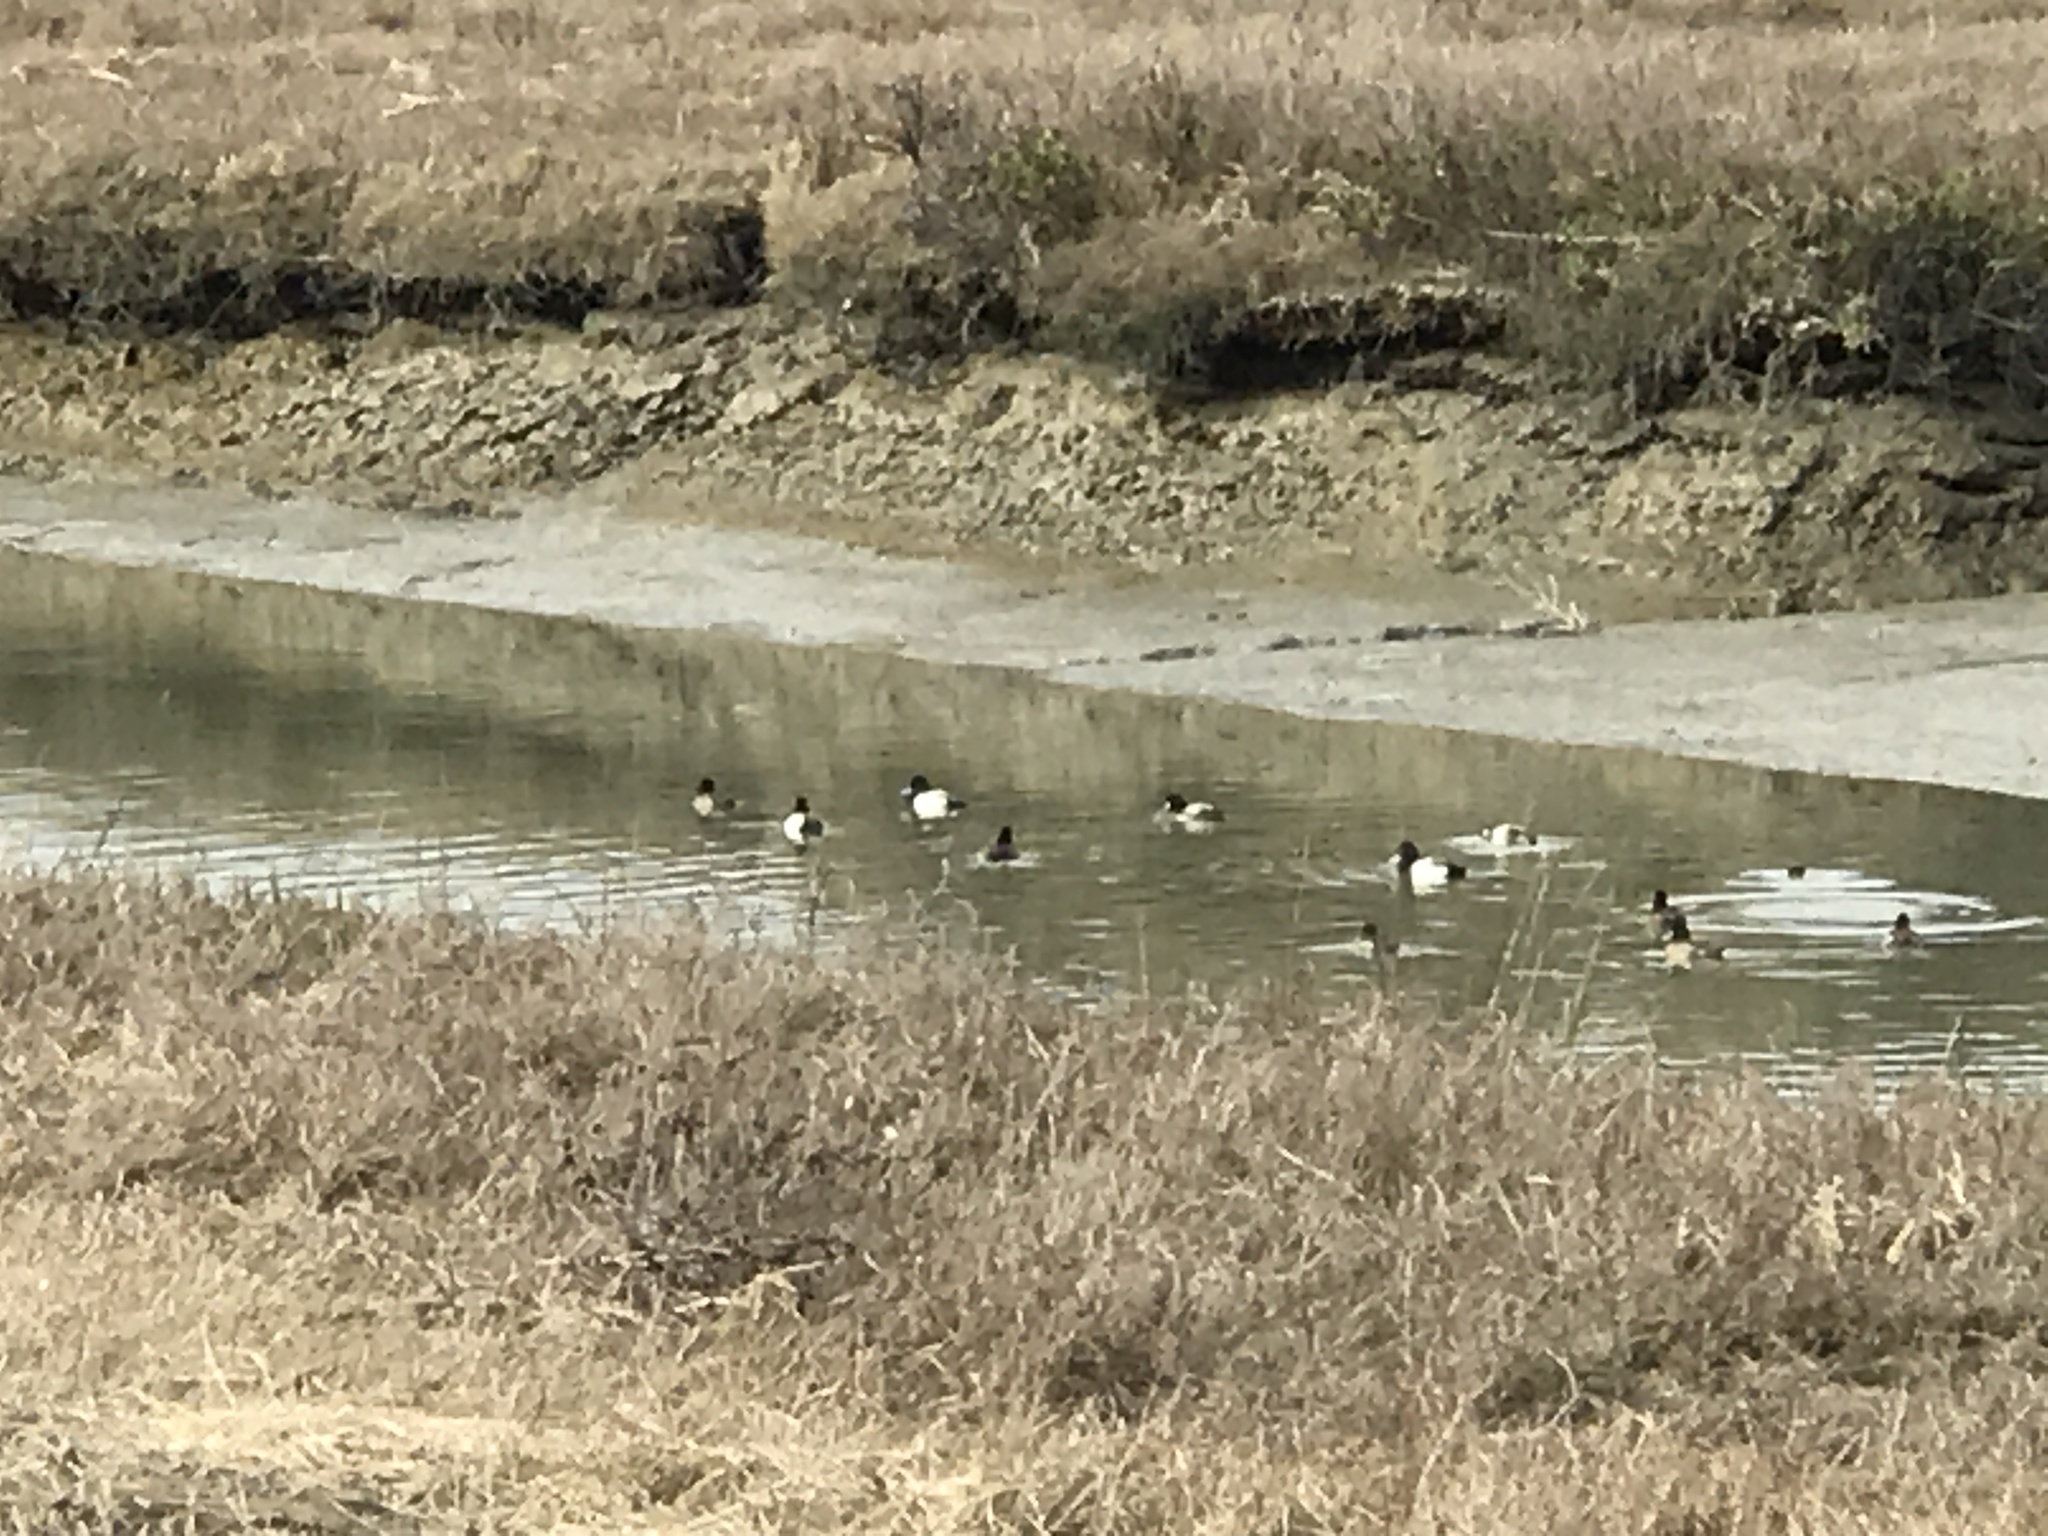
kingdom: Animalia
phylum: Chordata
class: Aves
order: Anseriformes
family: Anatidae
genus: Aythya
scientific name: Aythya
